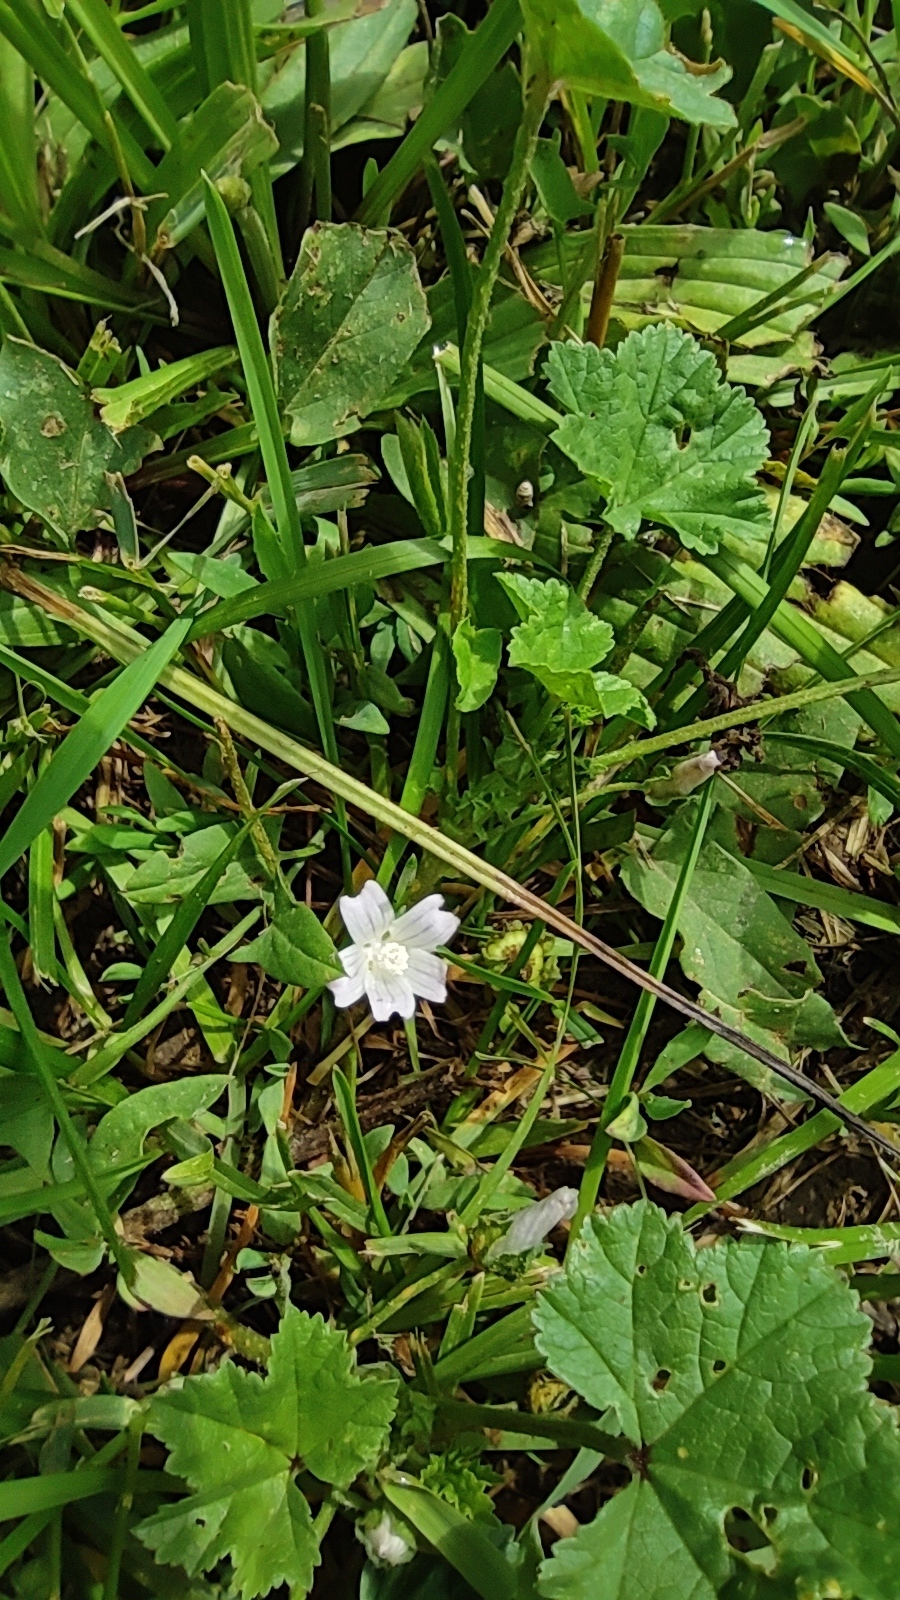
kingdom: Plantae
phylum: Tracheophyta
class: Magnoliopsida
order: Malvales
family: Malvaceae
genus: Malva
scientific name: Malva neglecta
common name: Common mallow
